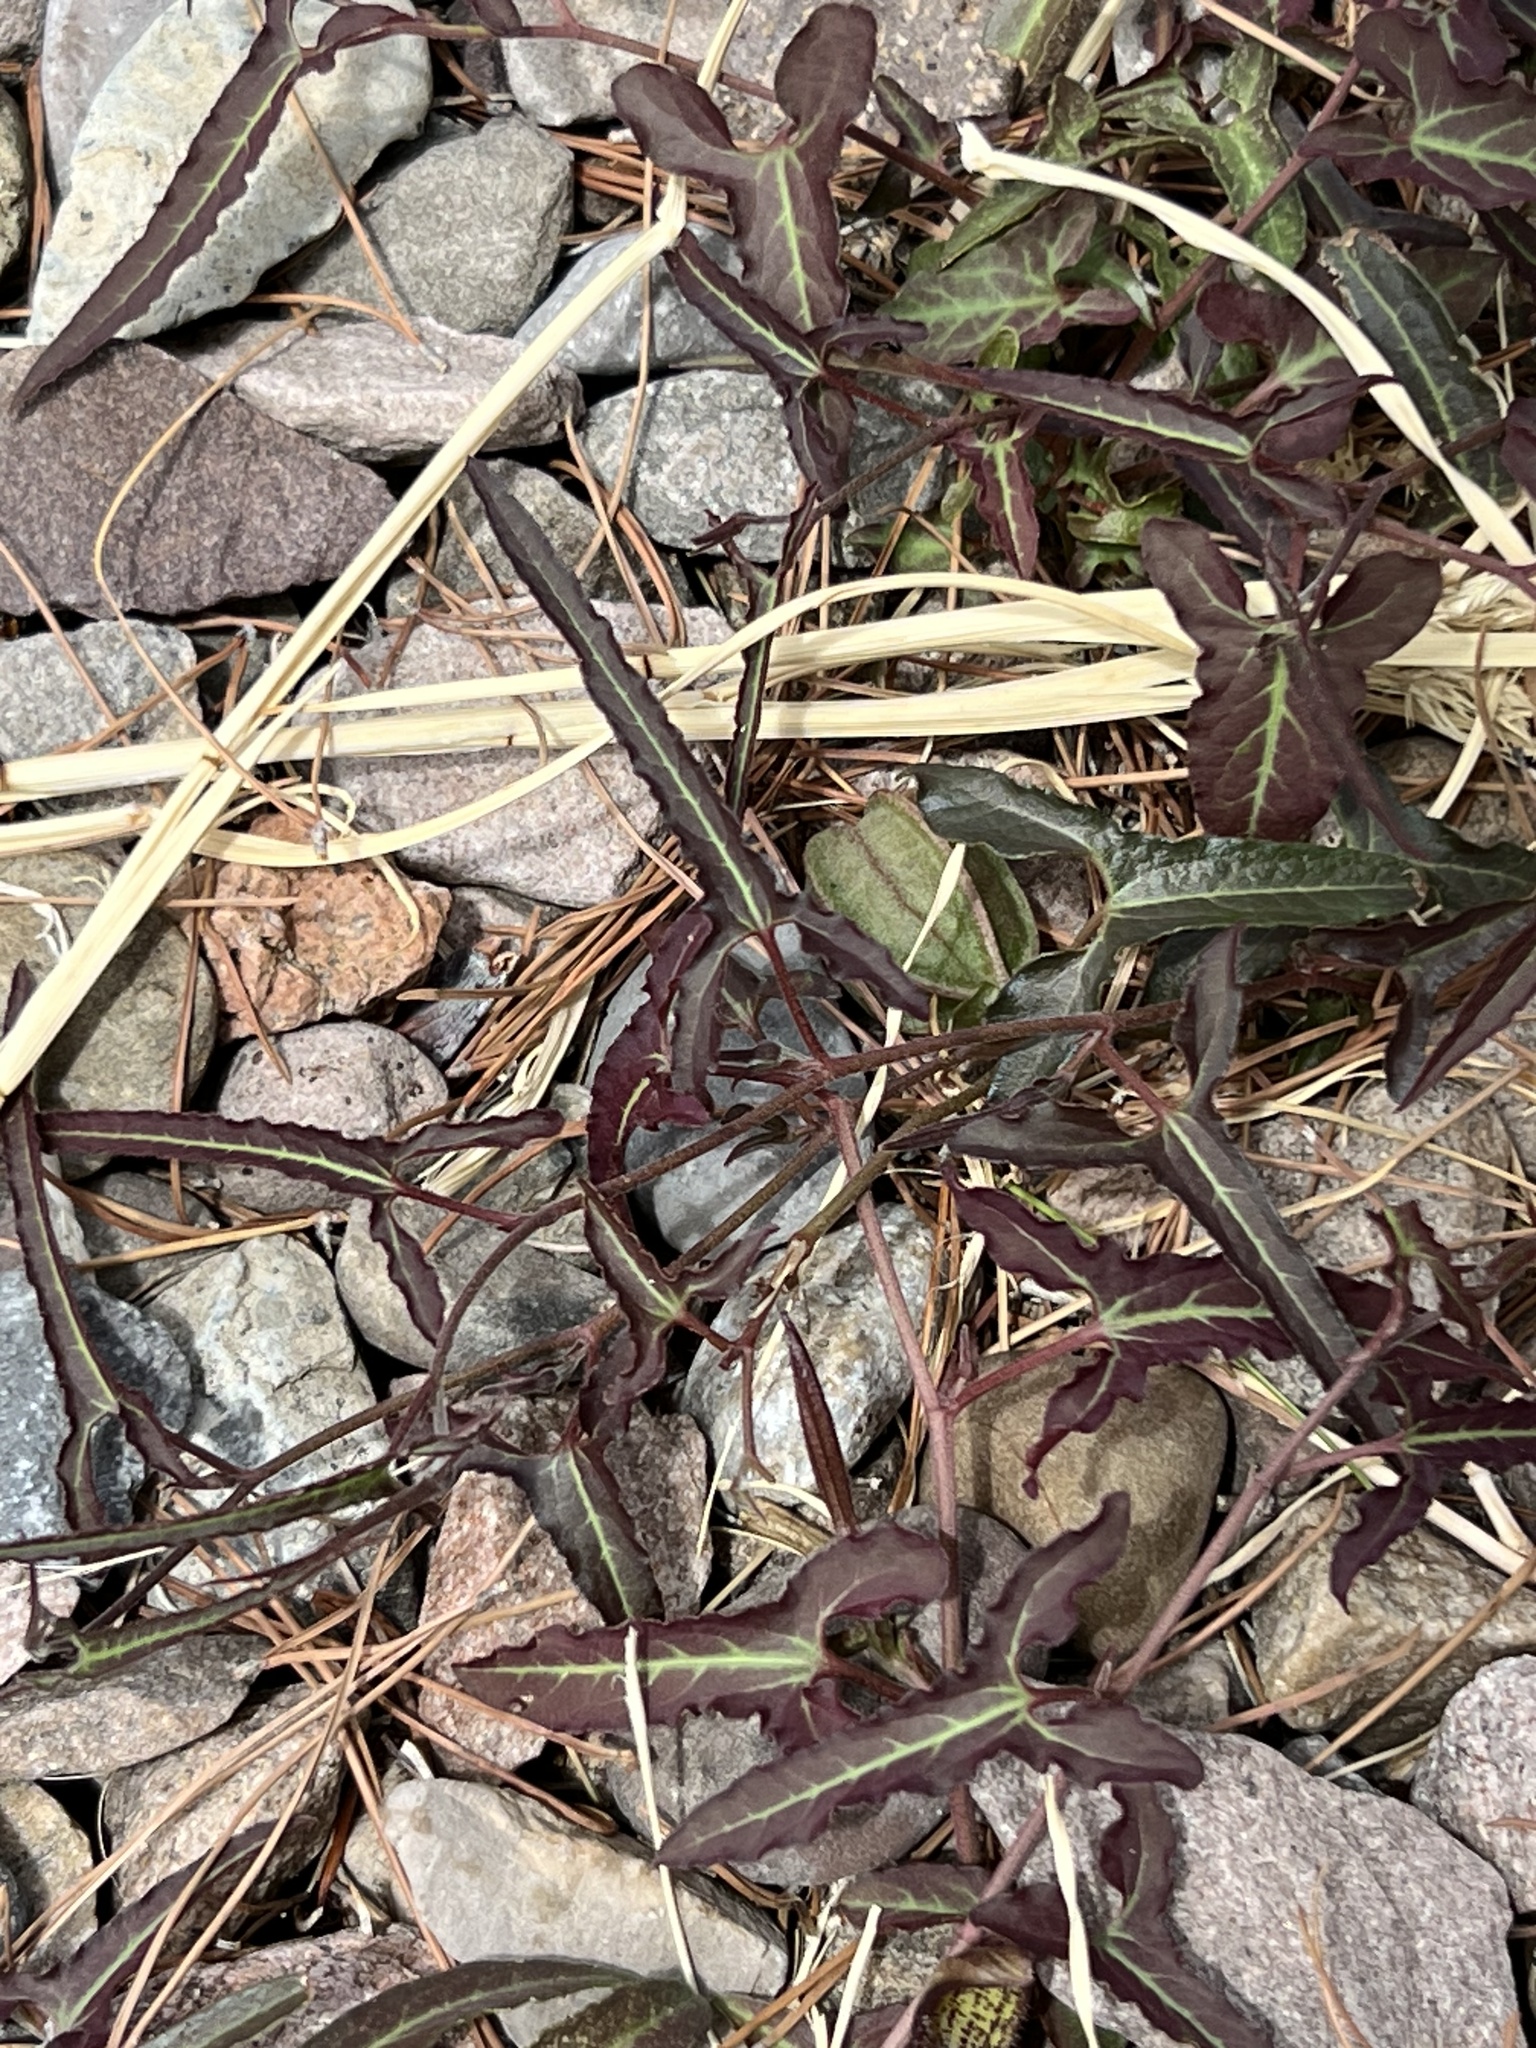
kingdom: Plantae
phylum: Tracheophyta
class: Magnoliopsida
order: Piperales
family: Aristolochiaceae
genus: Aristolochia
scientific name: Aristolochia watsonii
